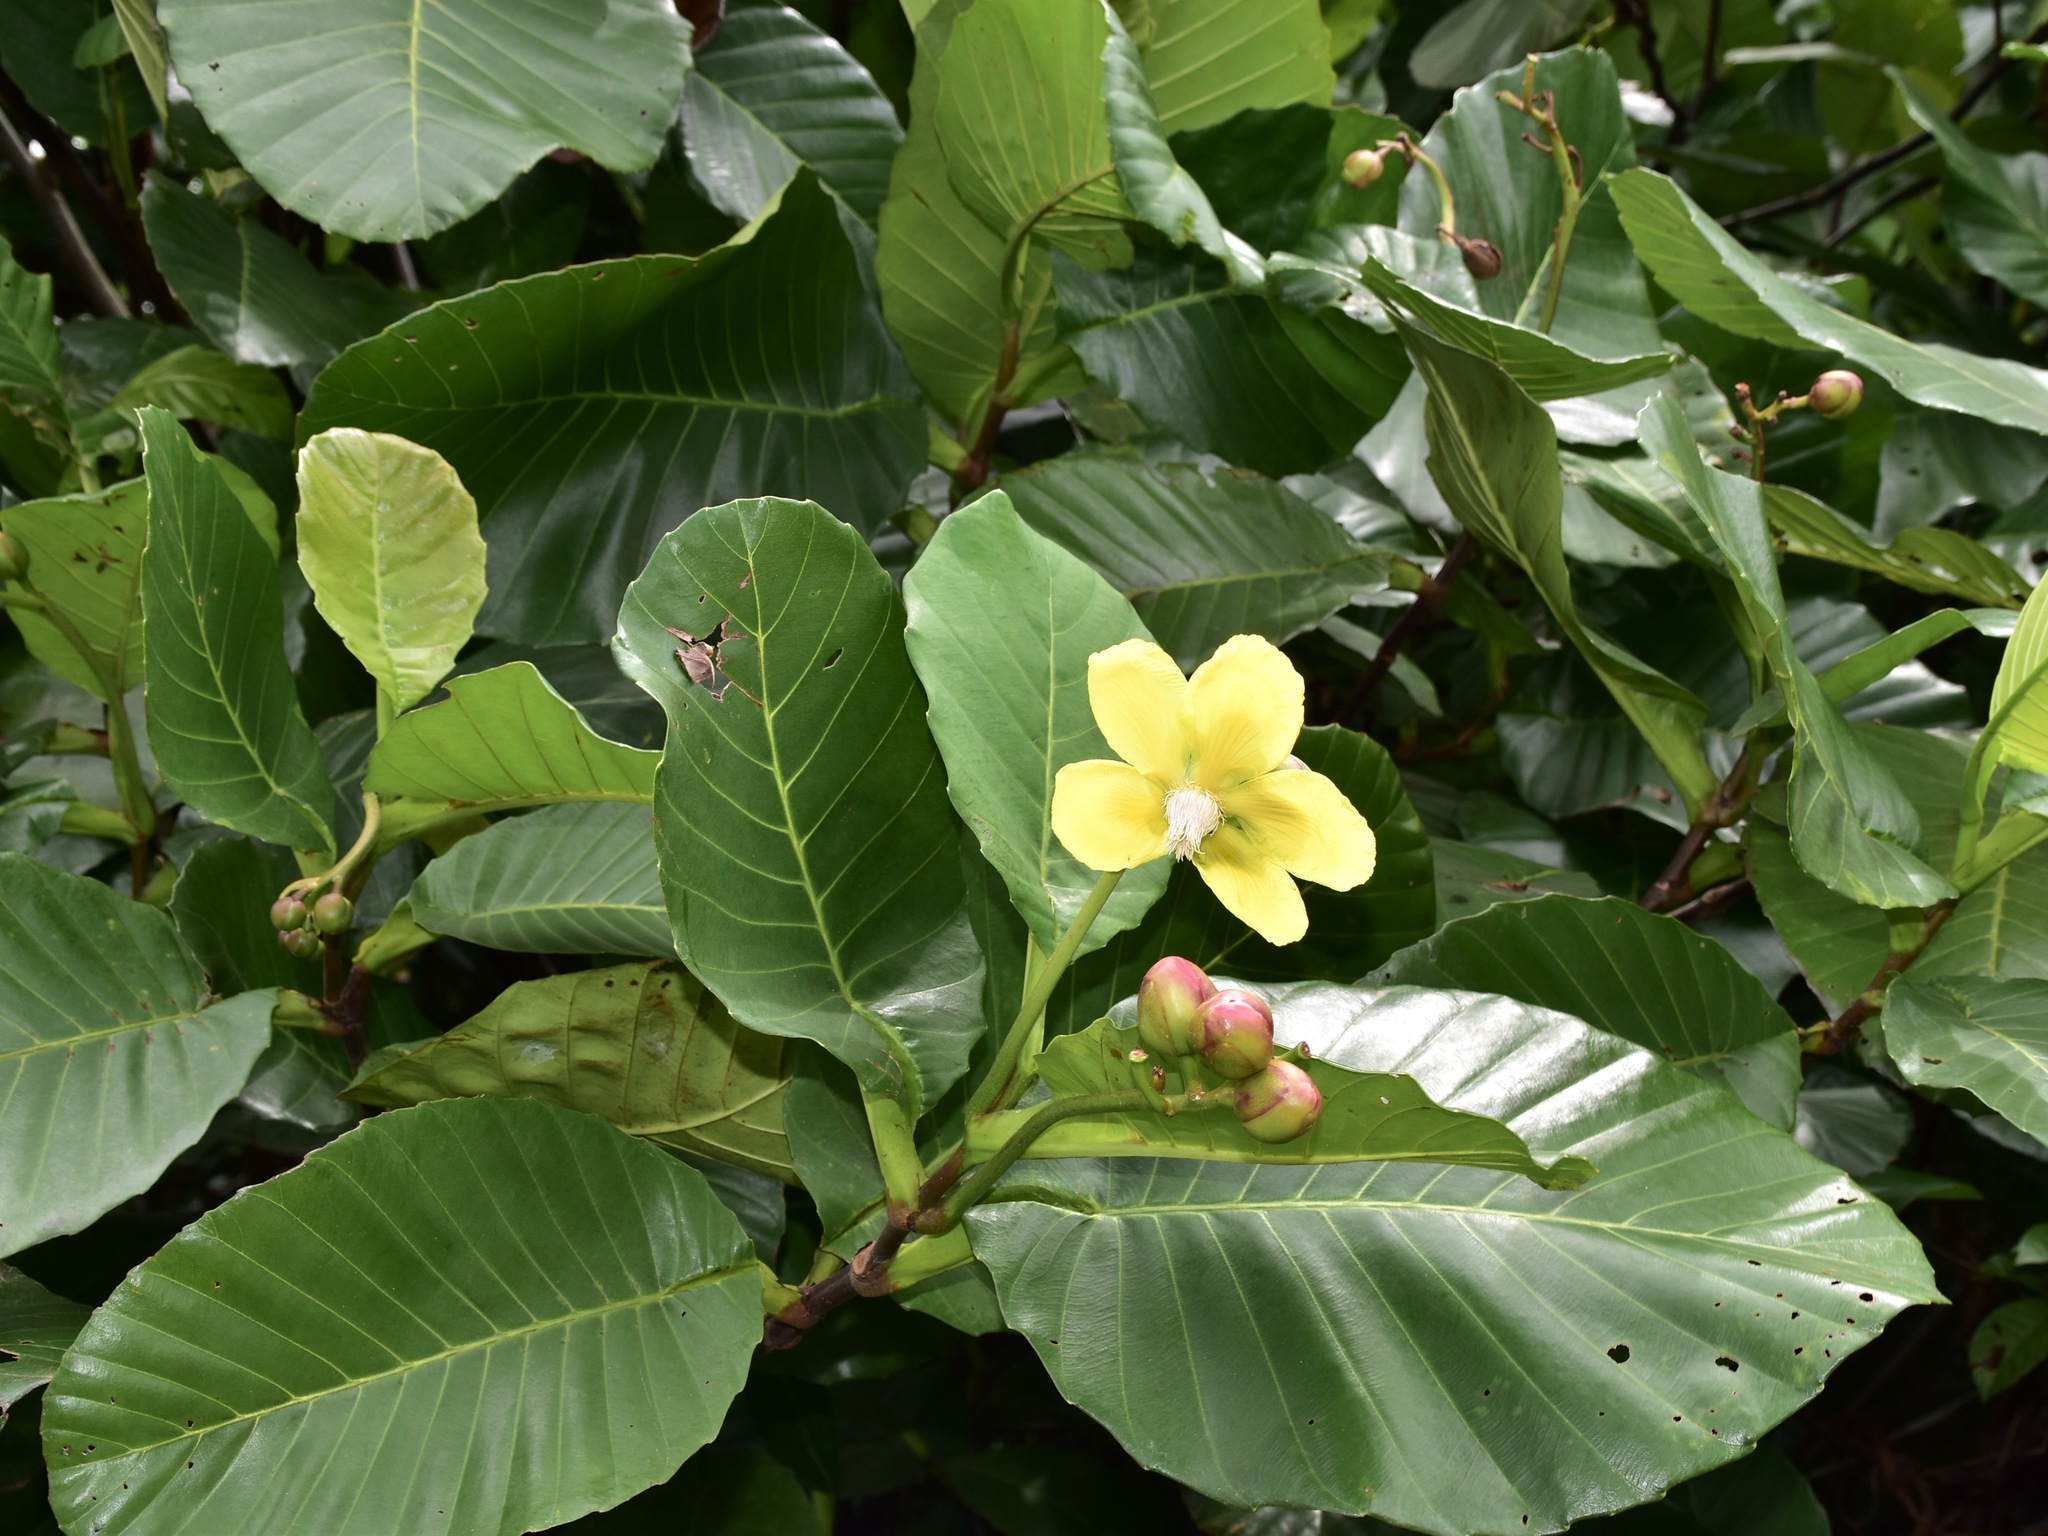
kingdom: Plantae
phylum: Tracheophyta
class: Magnoliopsida
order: Dilleniales
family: Dilleniaceae
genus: Dillenia
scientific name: Dillenia suffruticosa
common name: Shrubby dillenia
